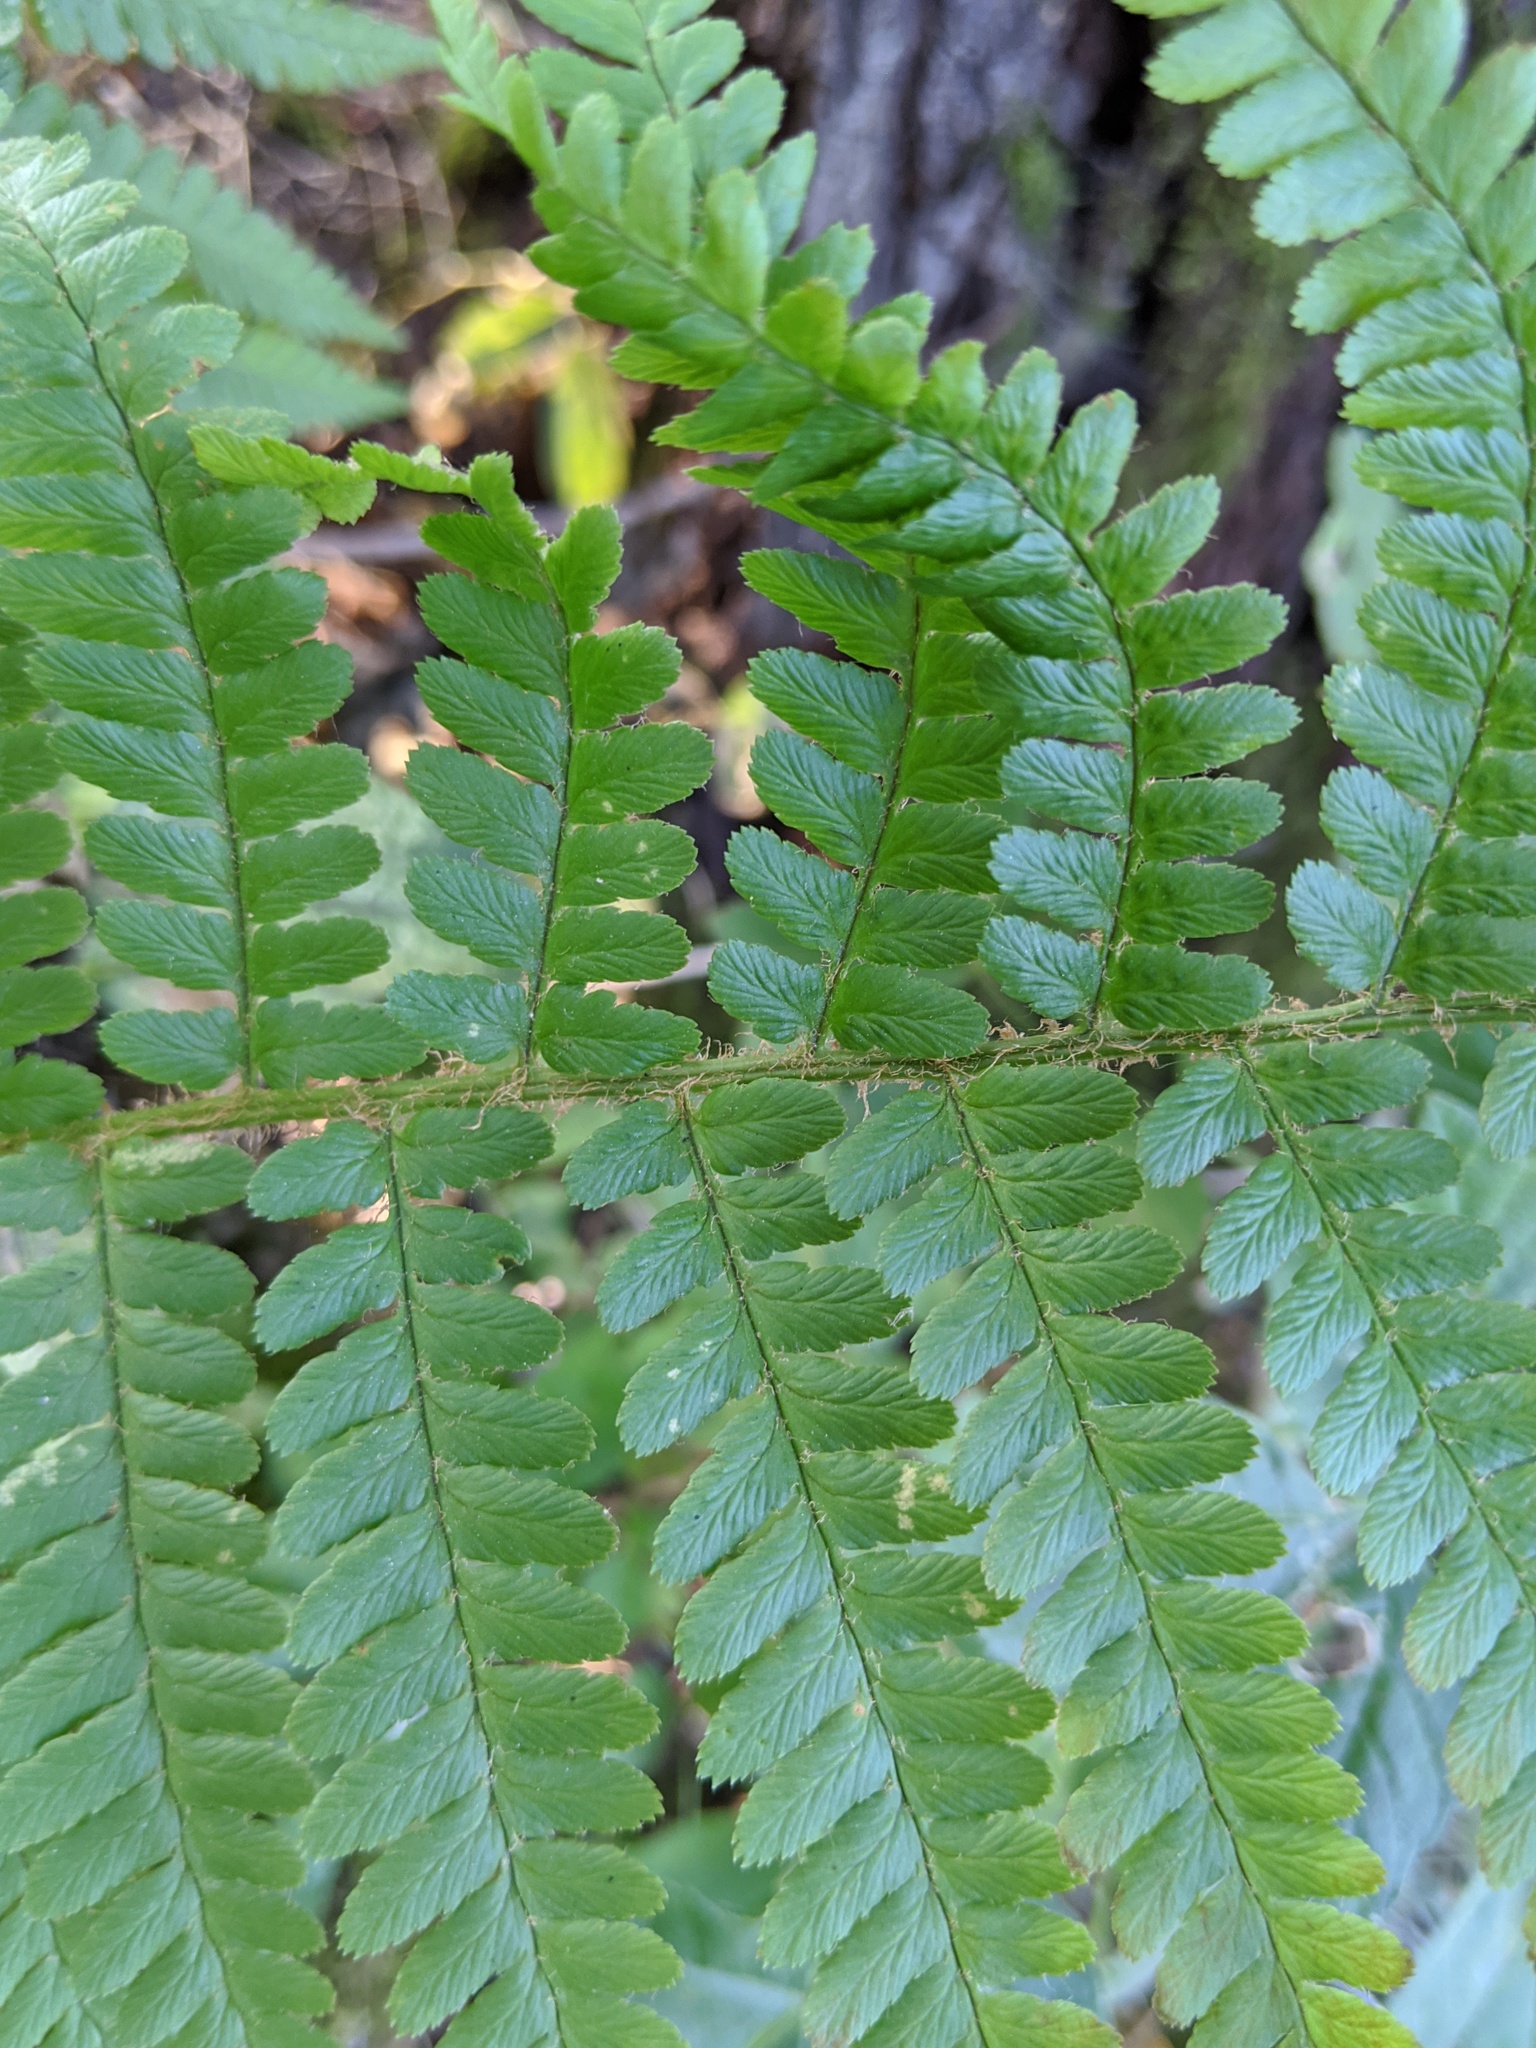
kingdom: Plantae
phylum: Tracheophyta
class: Polypodiopsida
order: Polypodiales
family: Dryopteridaceae
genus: Dryopteris
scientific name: Dryopteris filix-mas
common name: Male fern
